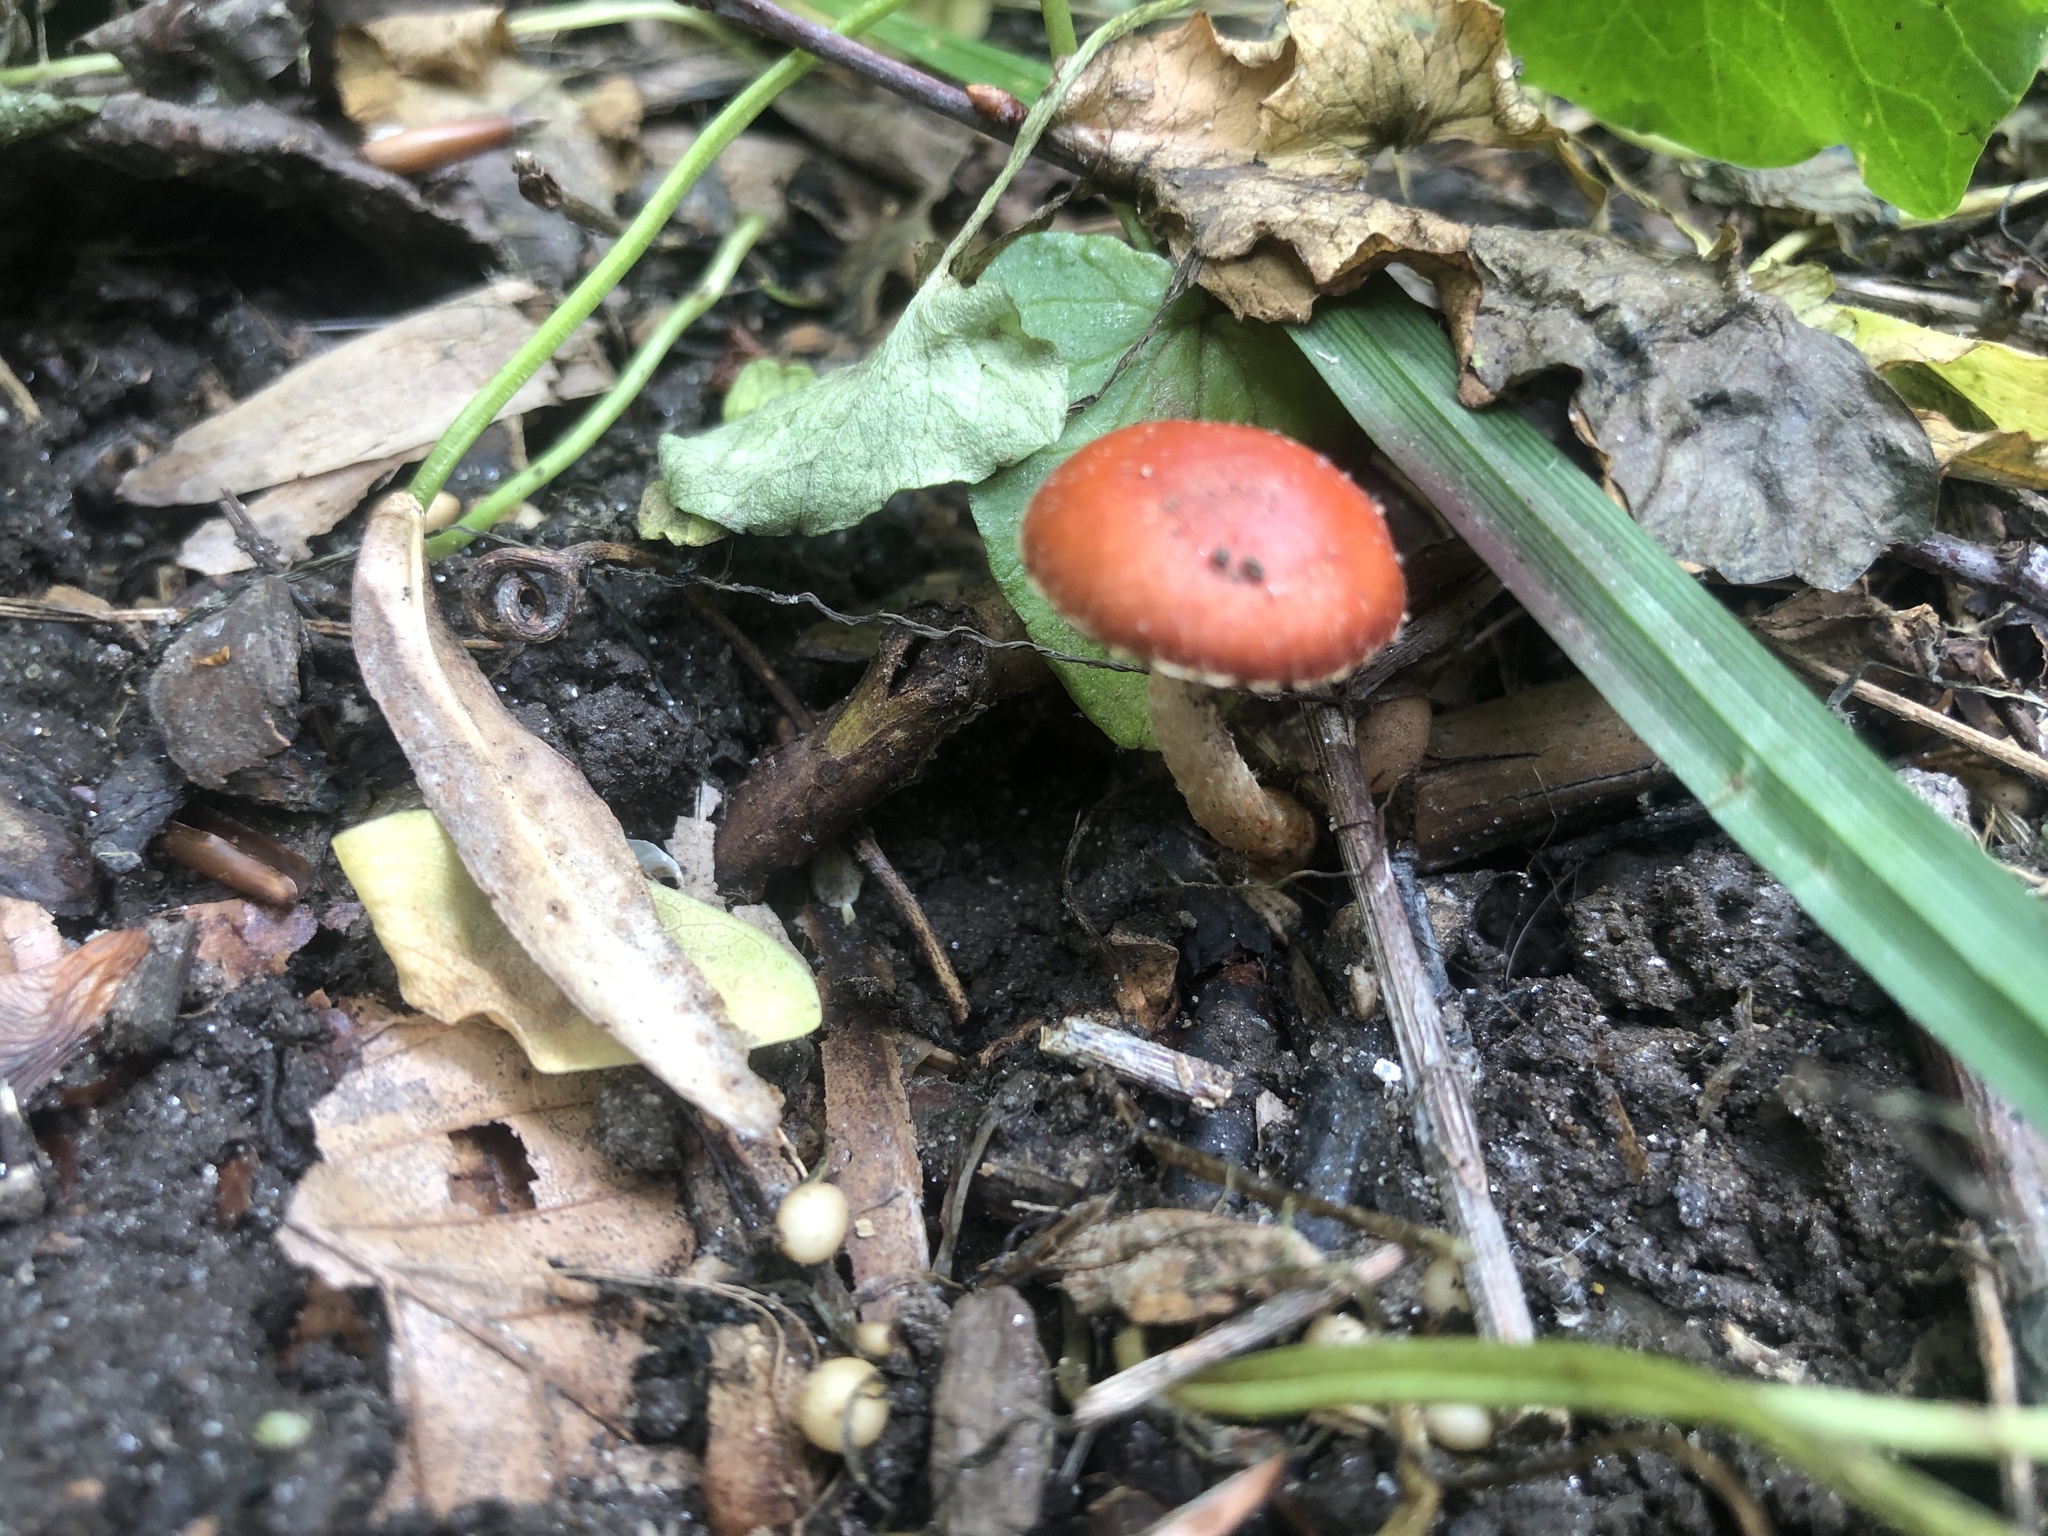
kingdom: Fungi
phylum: Basidiomycota
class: Agaricomycetes
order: Agaricales
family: Strophariaceae
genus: Leratiomyces
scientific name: Leratiomyces ceres
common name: Redlead roundhead
